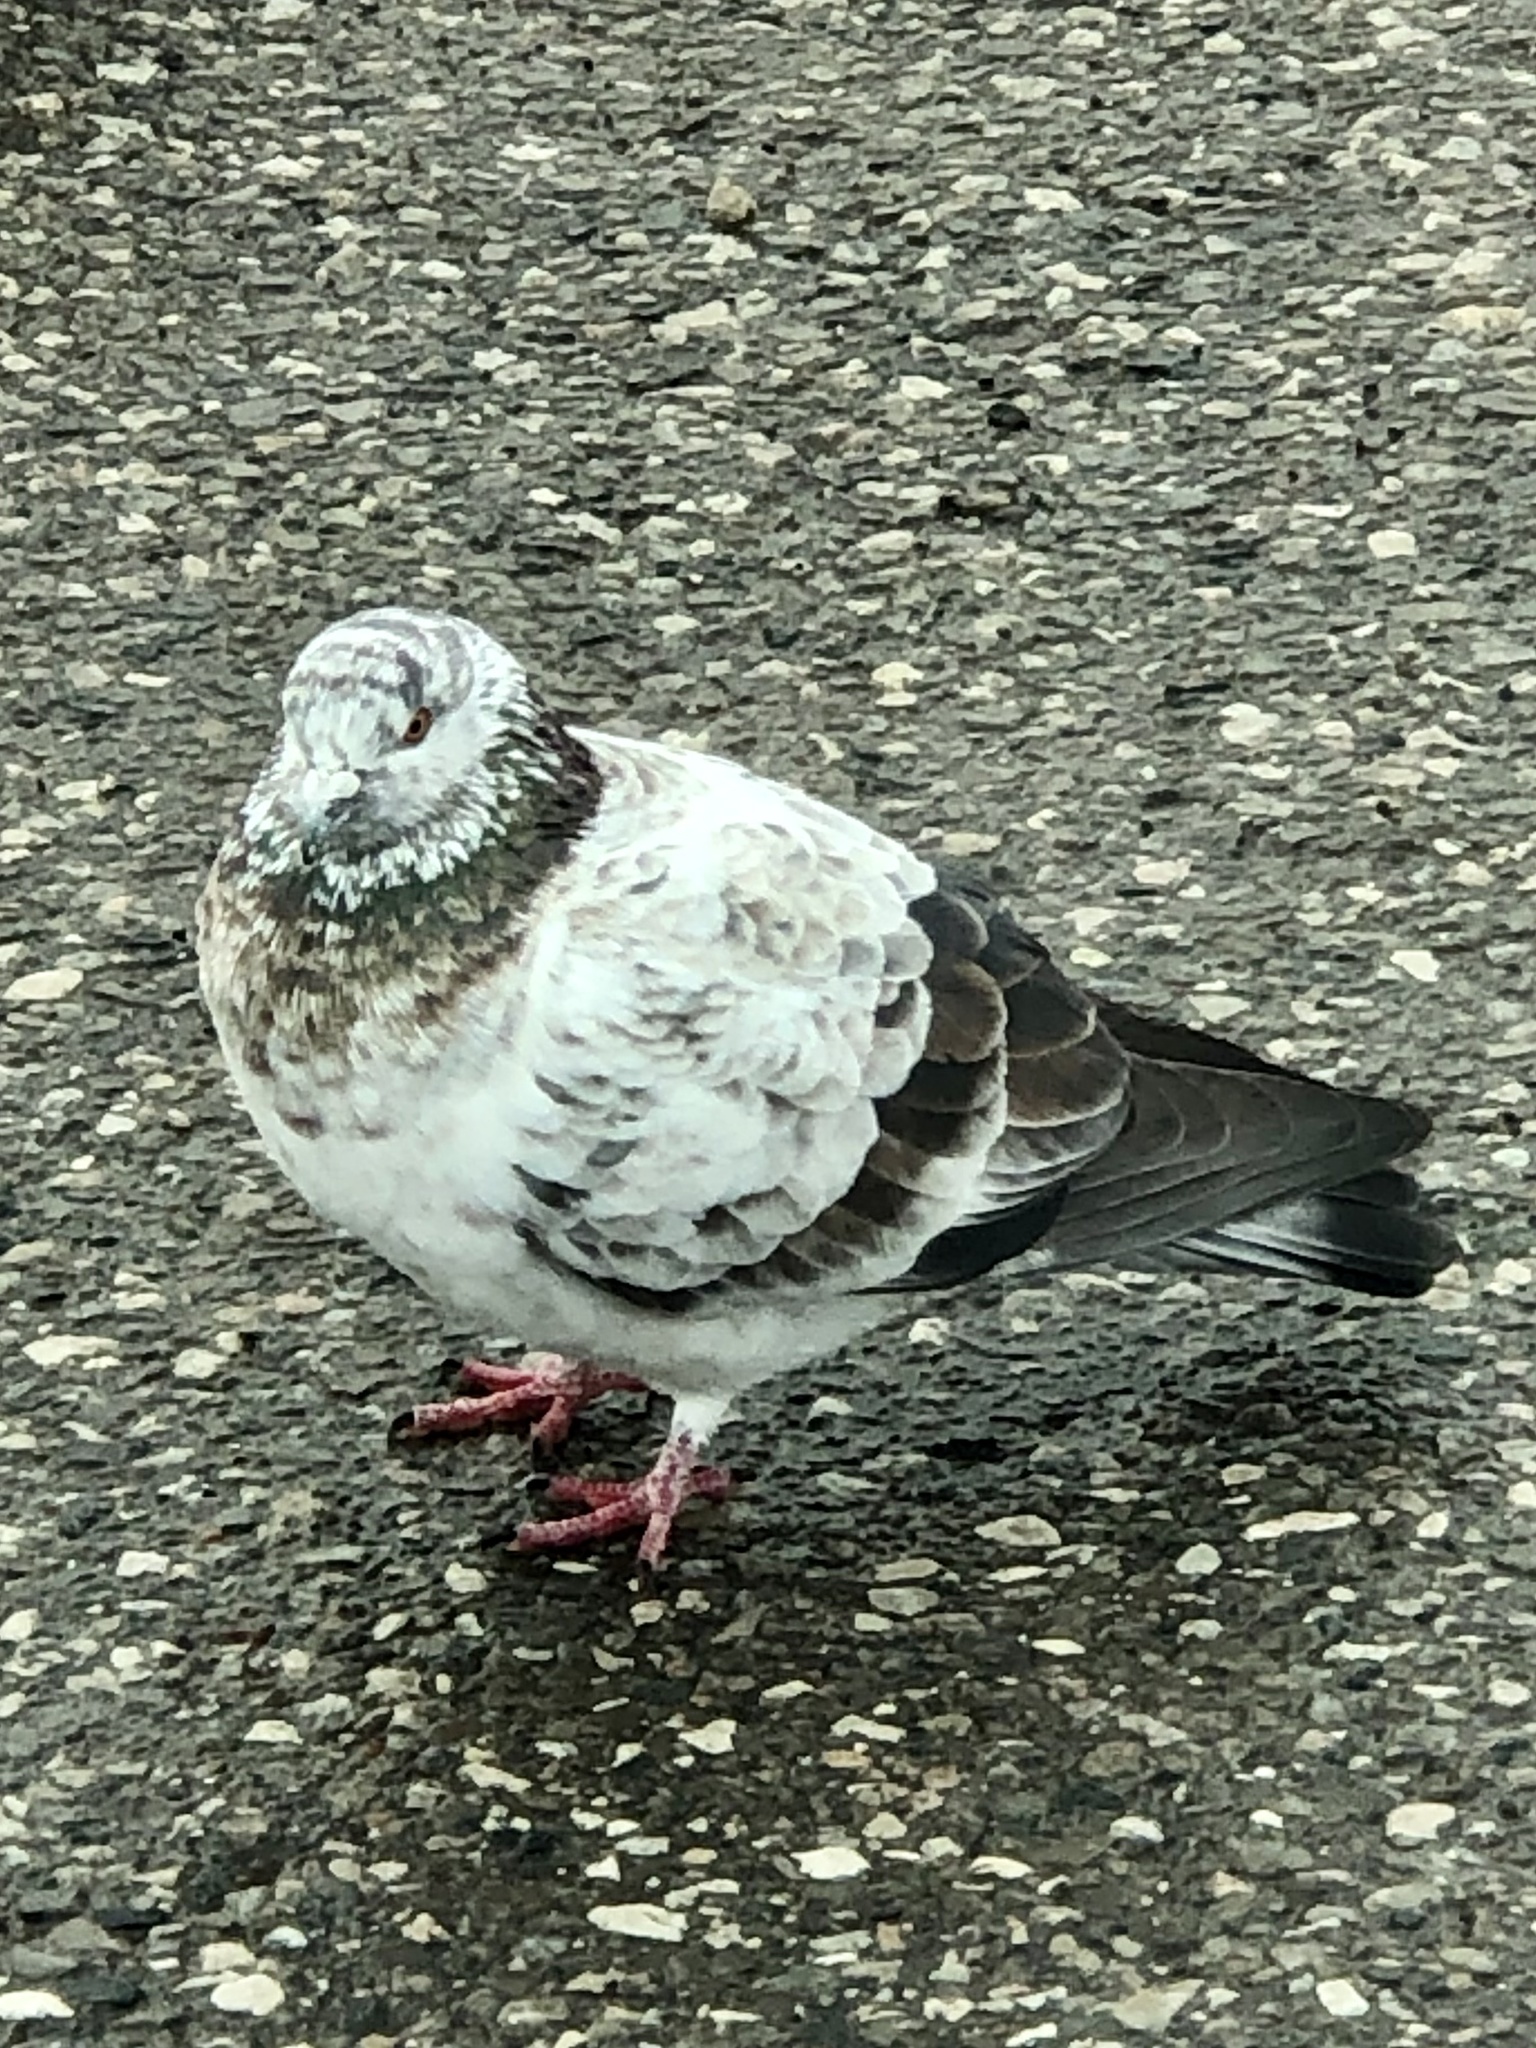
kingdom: Animalia
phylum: Chordata
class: Aves
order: Columbiformes
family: Columbidae
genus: Columba
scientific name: Columba livia
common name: Rock pigeon
